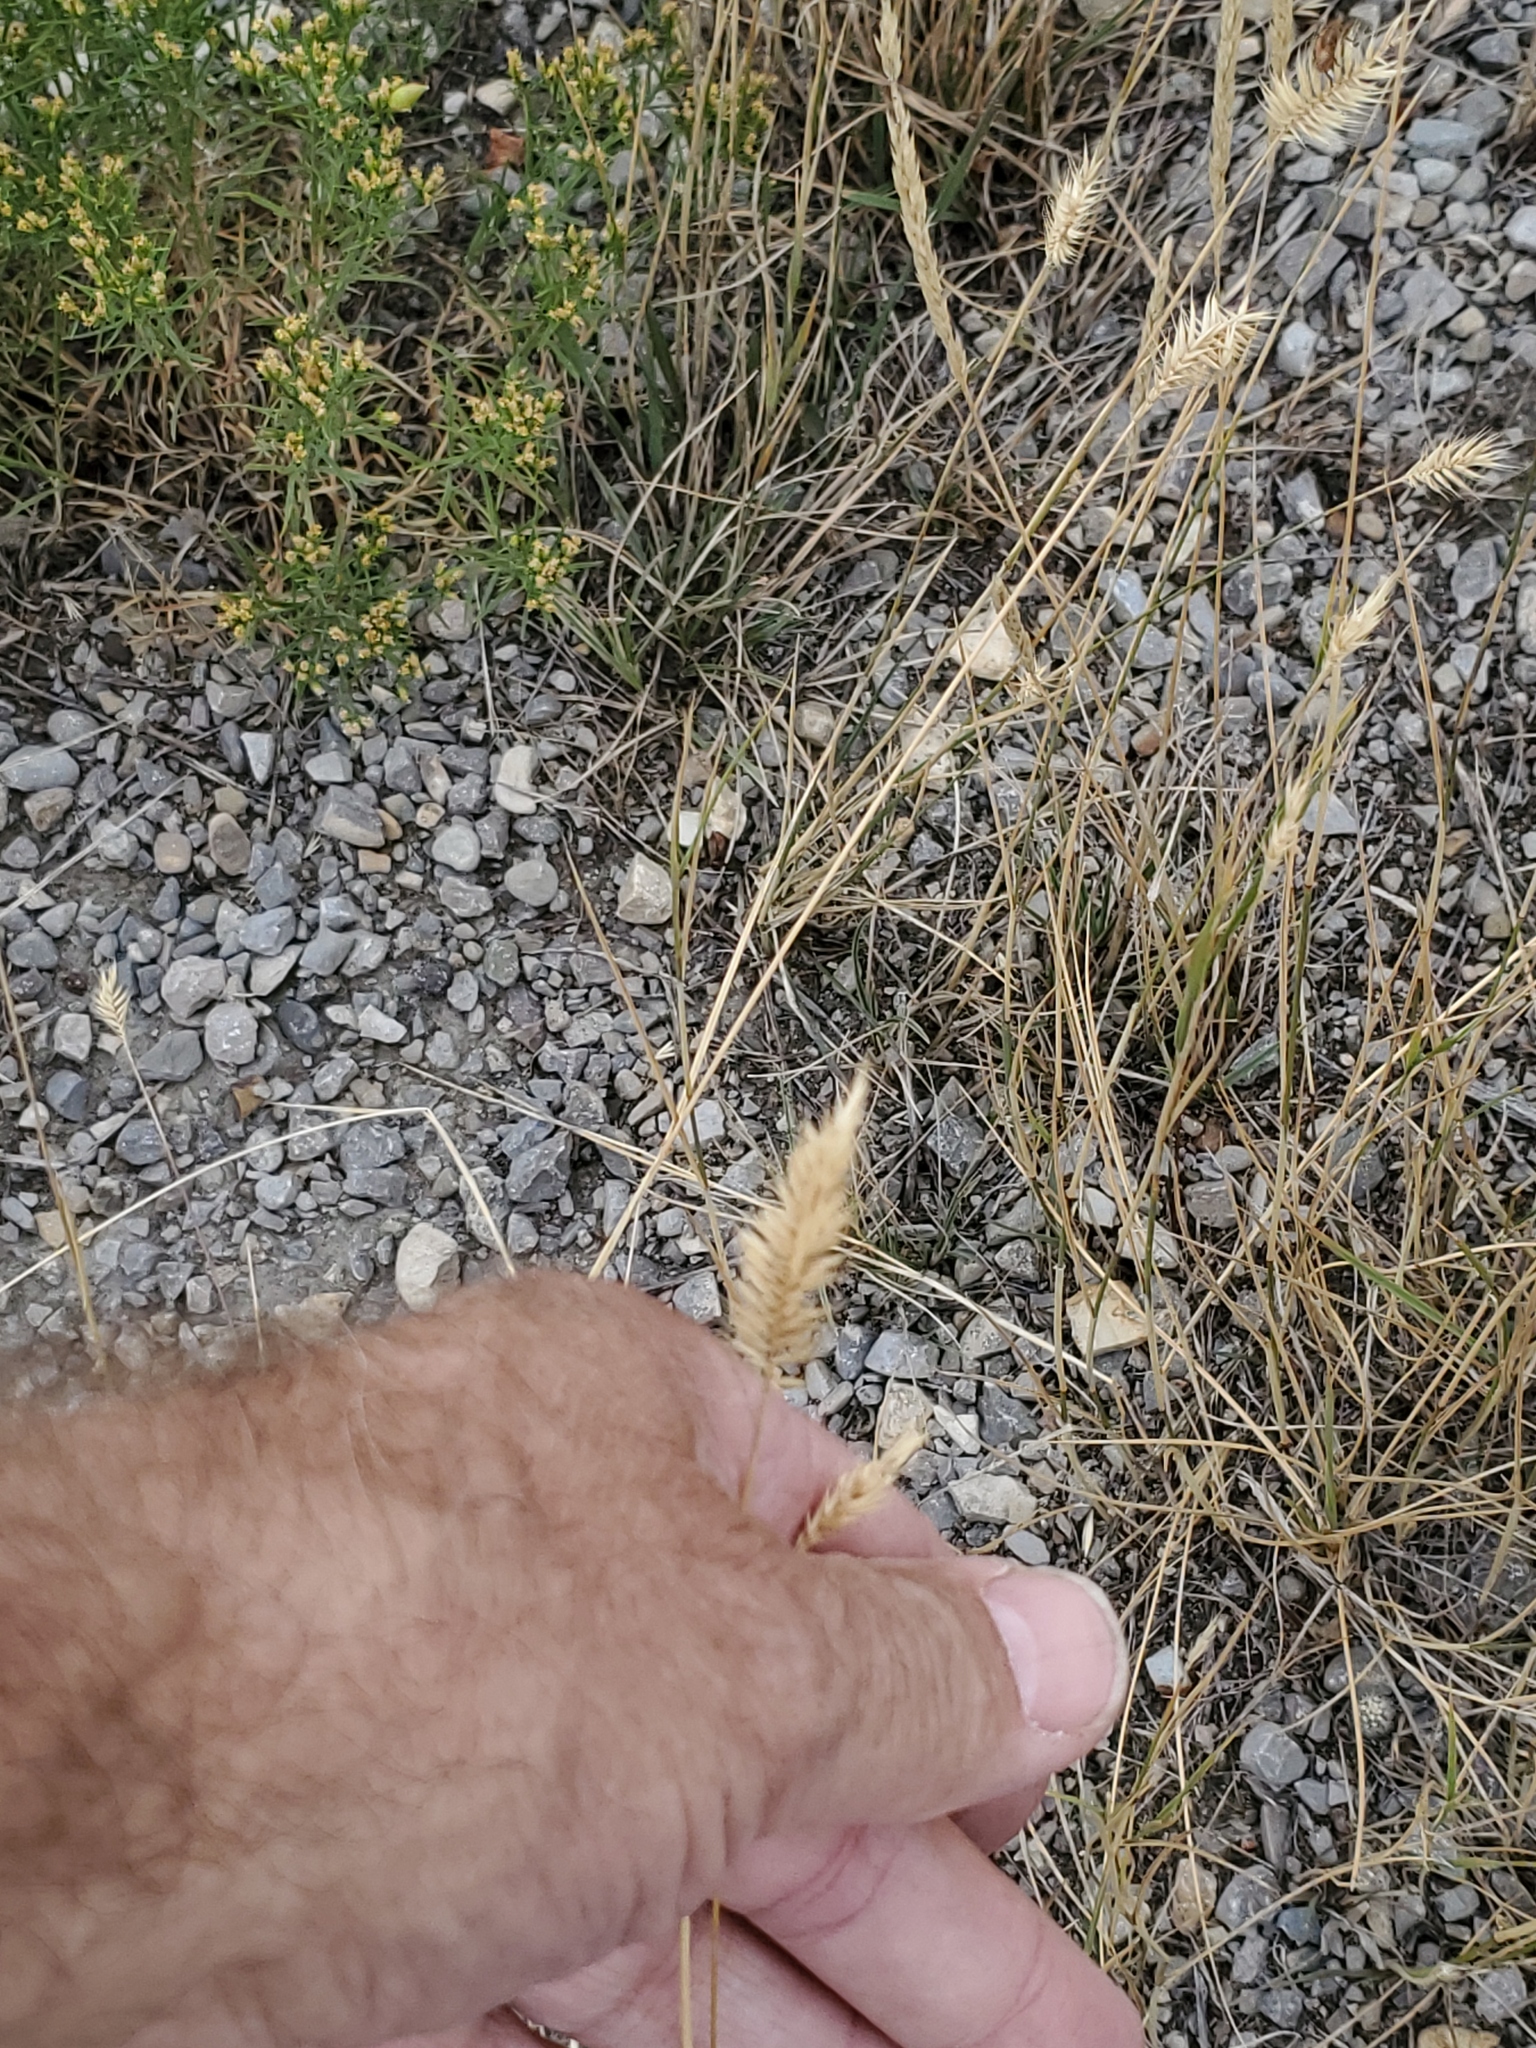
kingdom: Plantae
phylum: Tracheophyta
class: Liliopsida
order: Poales
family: Poaceae
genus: Agropyron
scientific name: Agropyron cristatum
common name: Crested wheatgrass
